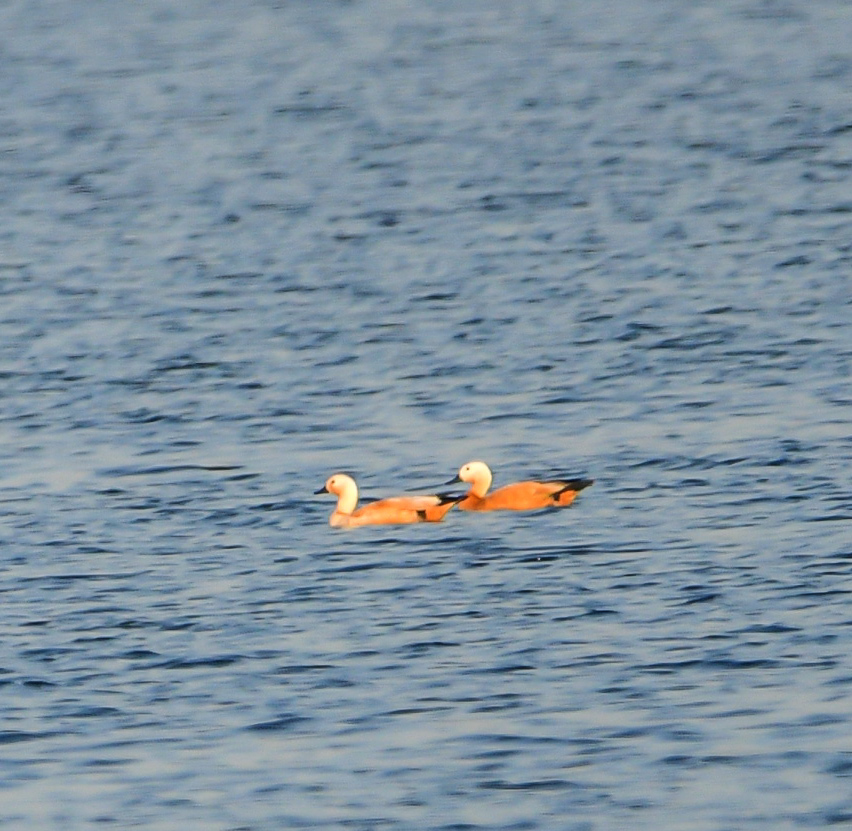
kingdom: Animalia
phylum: Chordata
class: Aves
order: Anseriformes
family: Anatidae
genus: Tadorna
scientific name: Tadorna ferruginea
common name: Ruddy shelduck
